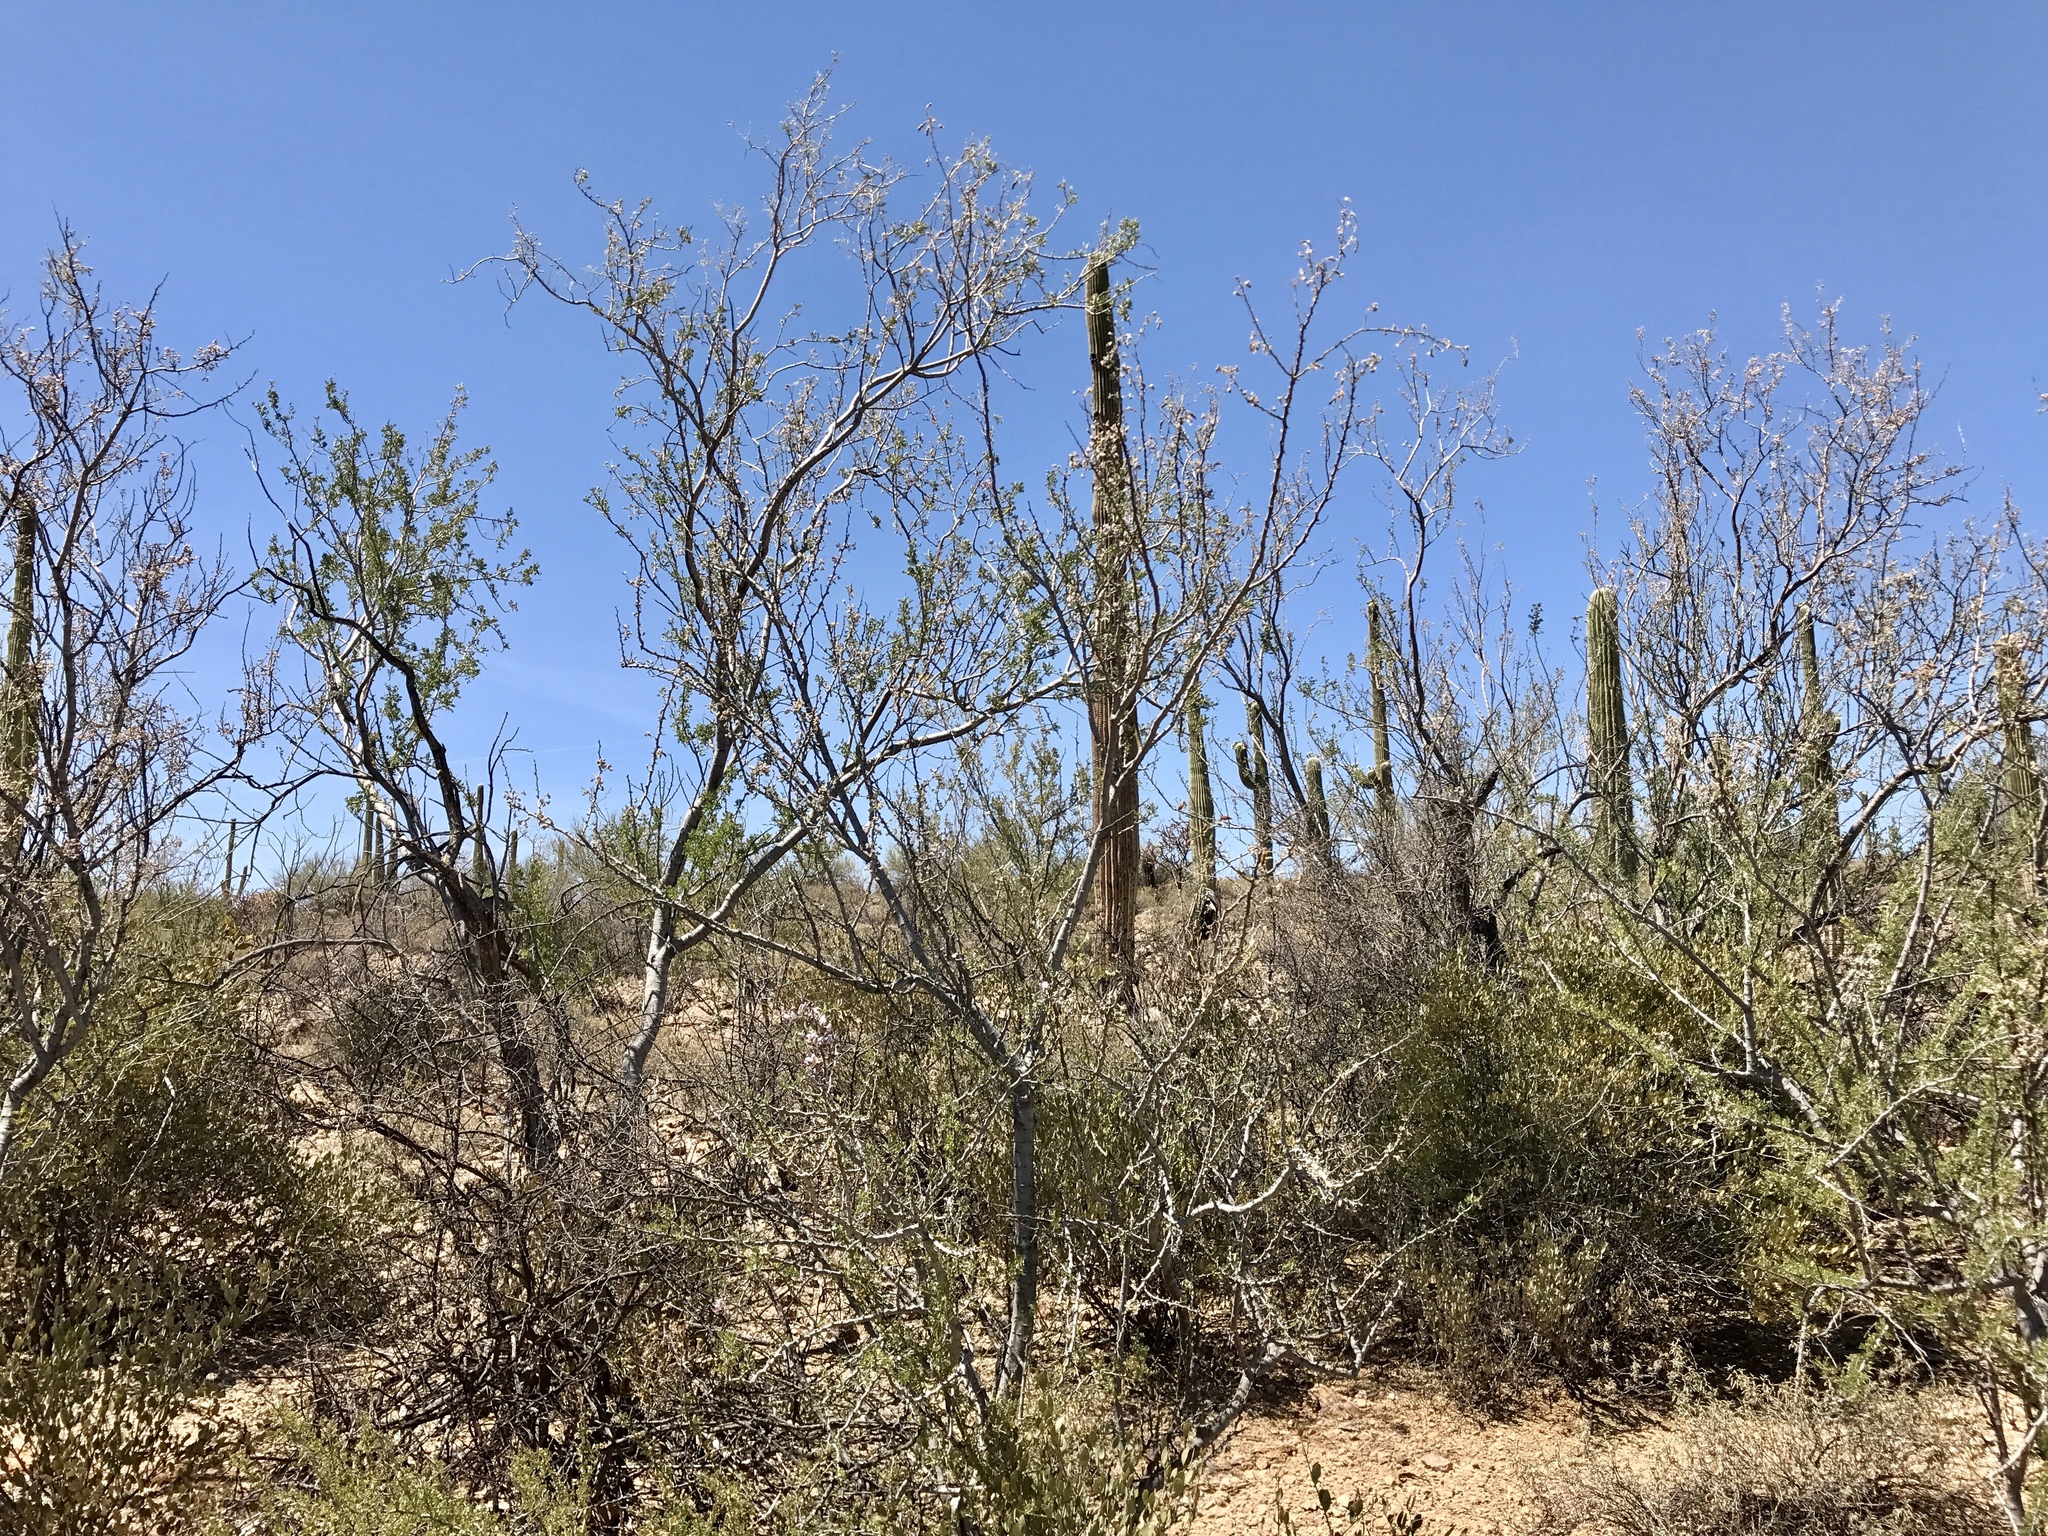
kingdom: Plantae
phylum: Tracheophyta
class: Magnoliopsida
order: Fabales
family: Fabaceae
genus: Olneya
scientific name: Olneya tesota
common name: Desert ironwood
